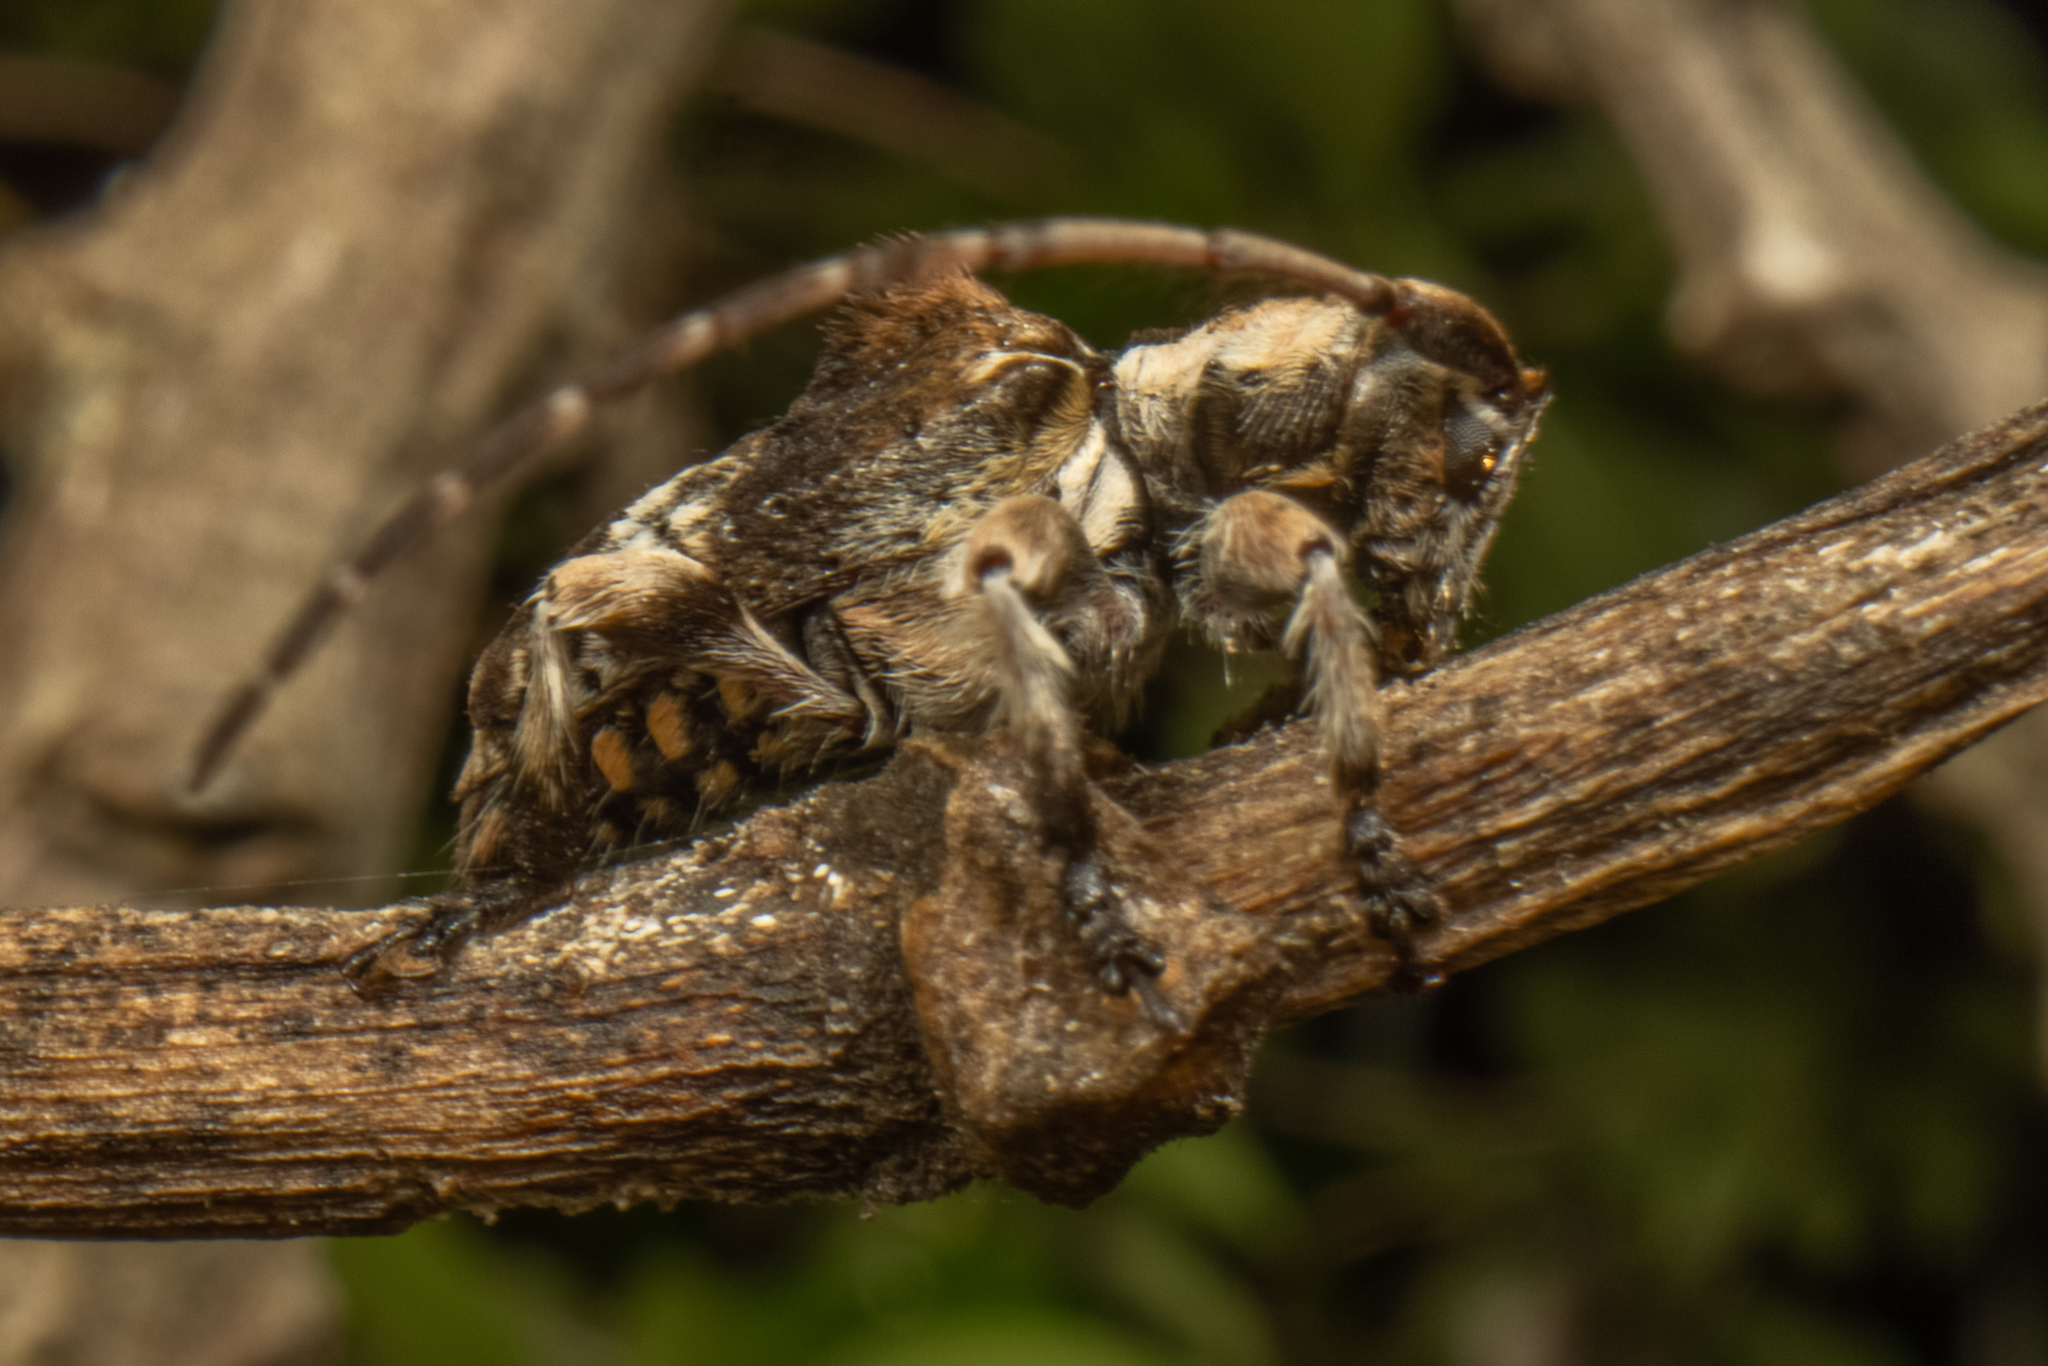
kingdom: Animalia
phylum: Arthropoda
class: Insecta
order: Coleoptera
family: Cerambycidae
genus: Hybolasius
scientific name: Hybolasius cristus
